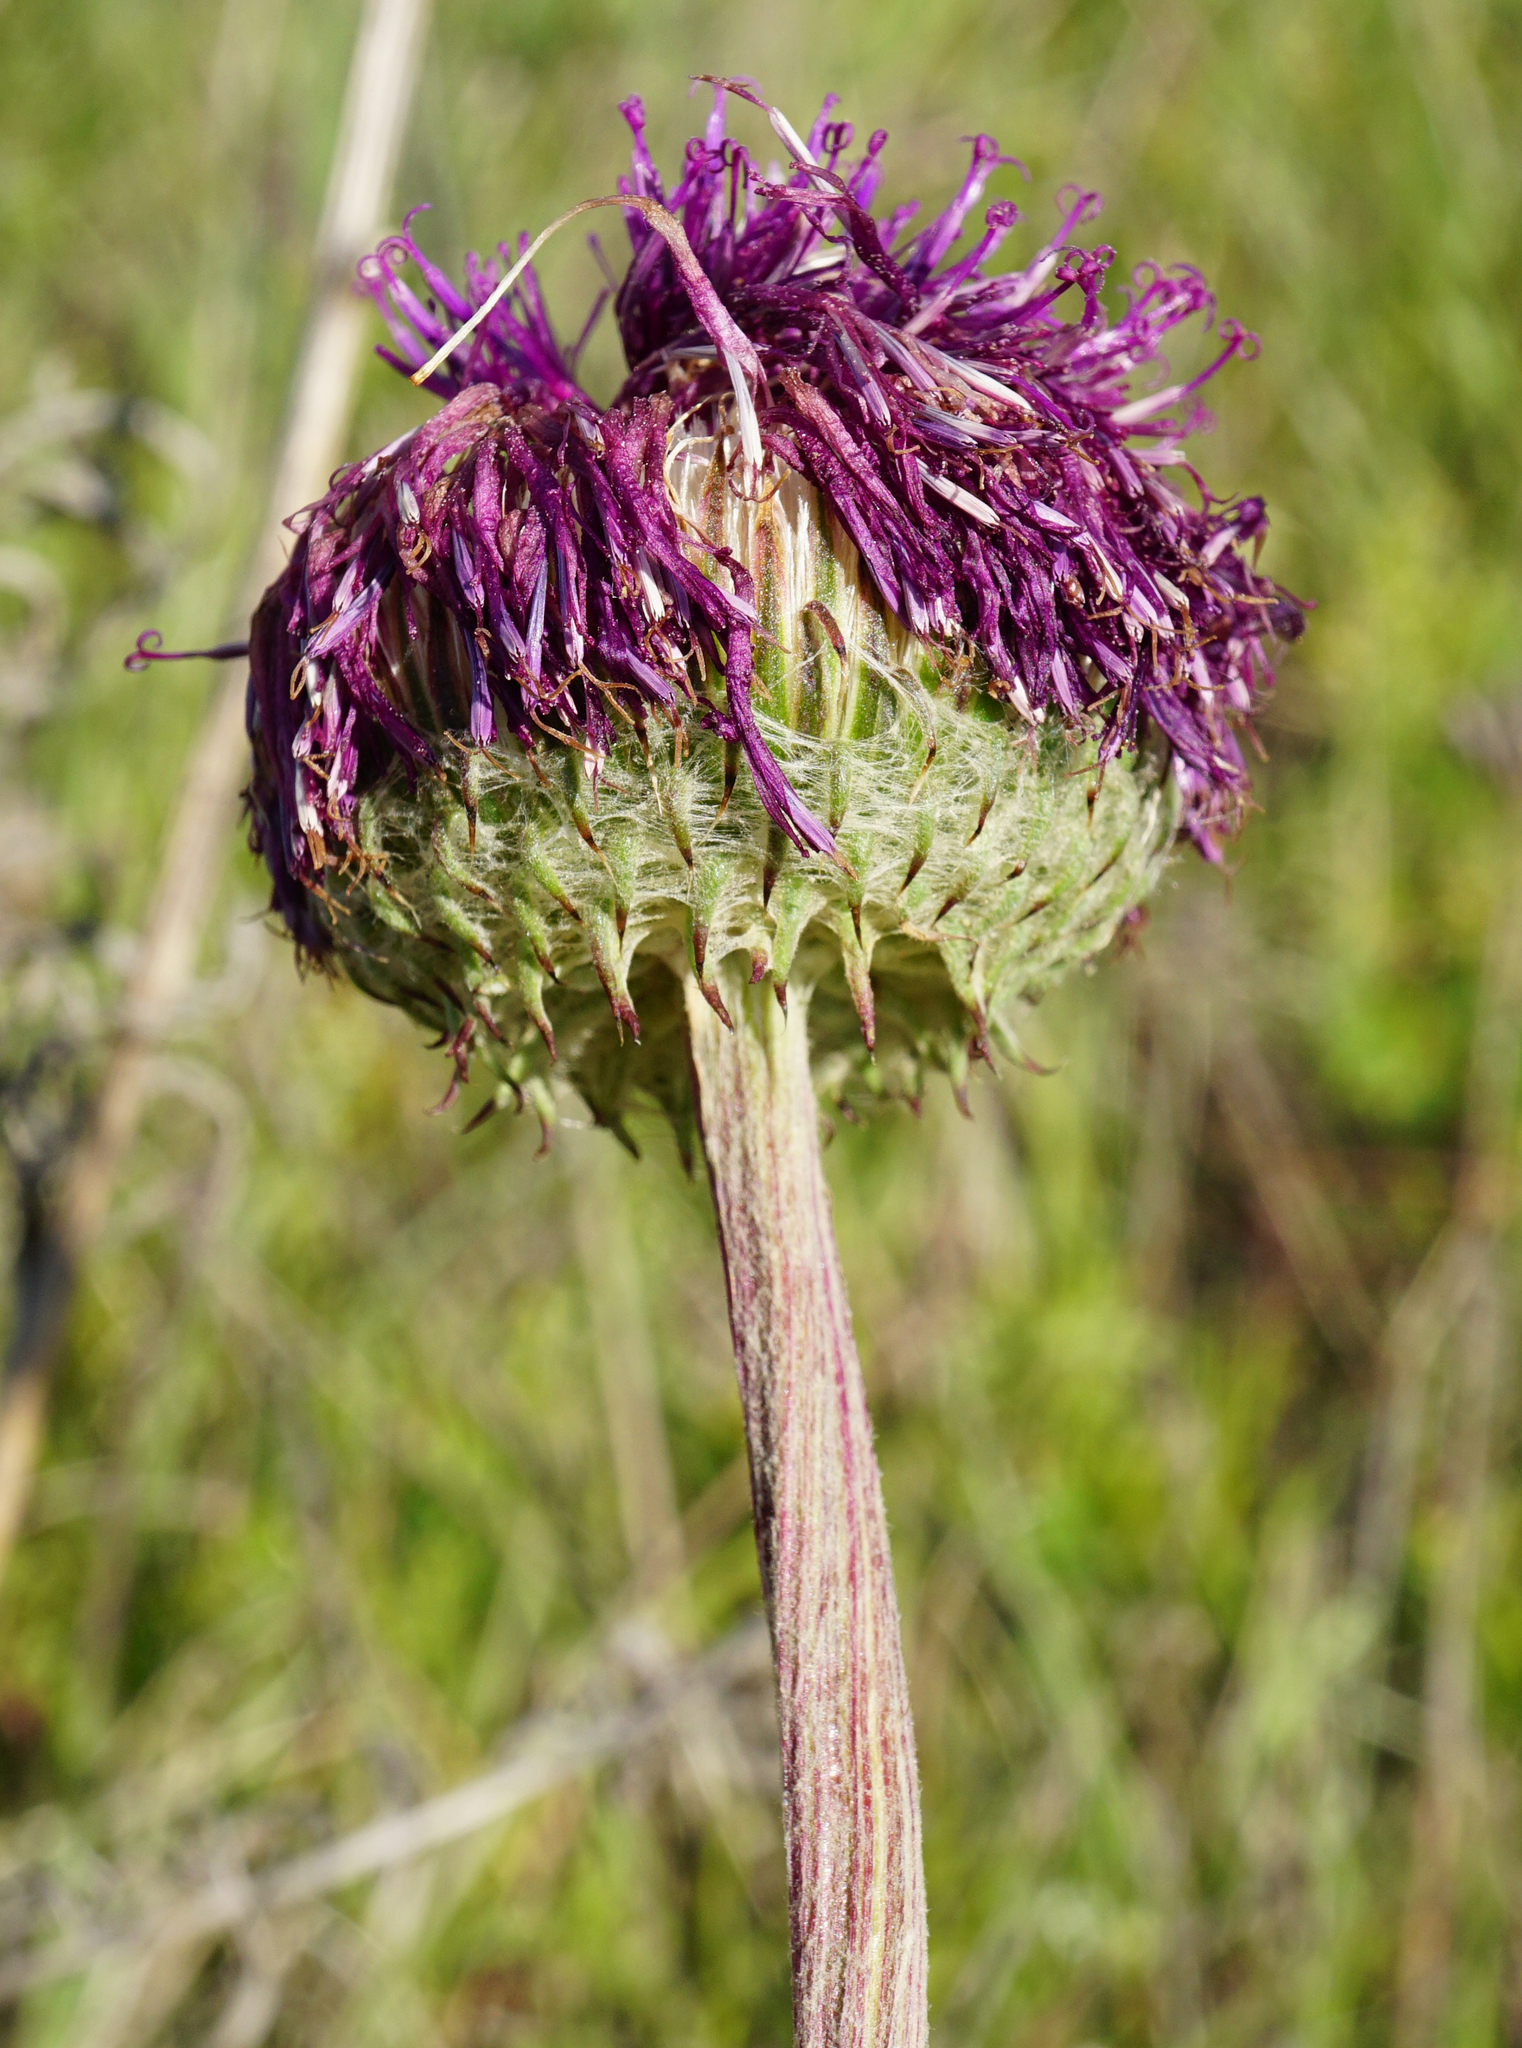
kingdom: Plantae
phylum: Tracheophyta
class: Magnoliopsida
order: Asterales
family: Asteraceae
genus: Jurinea
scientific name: Jurinea mollis
